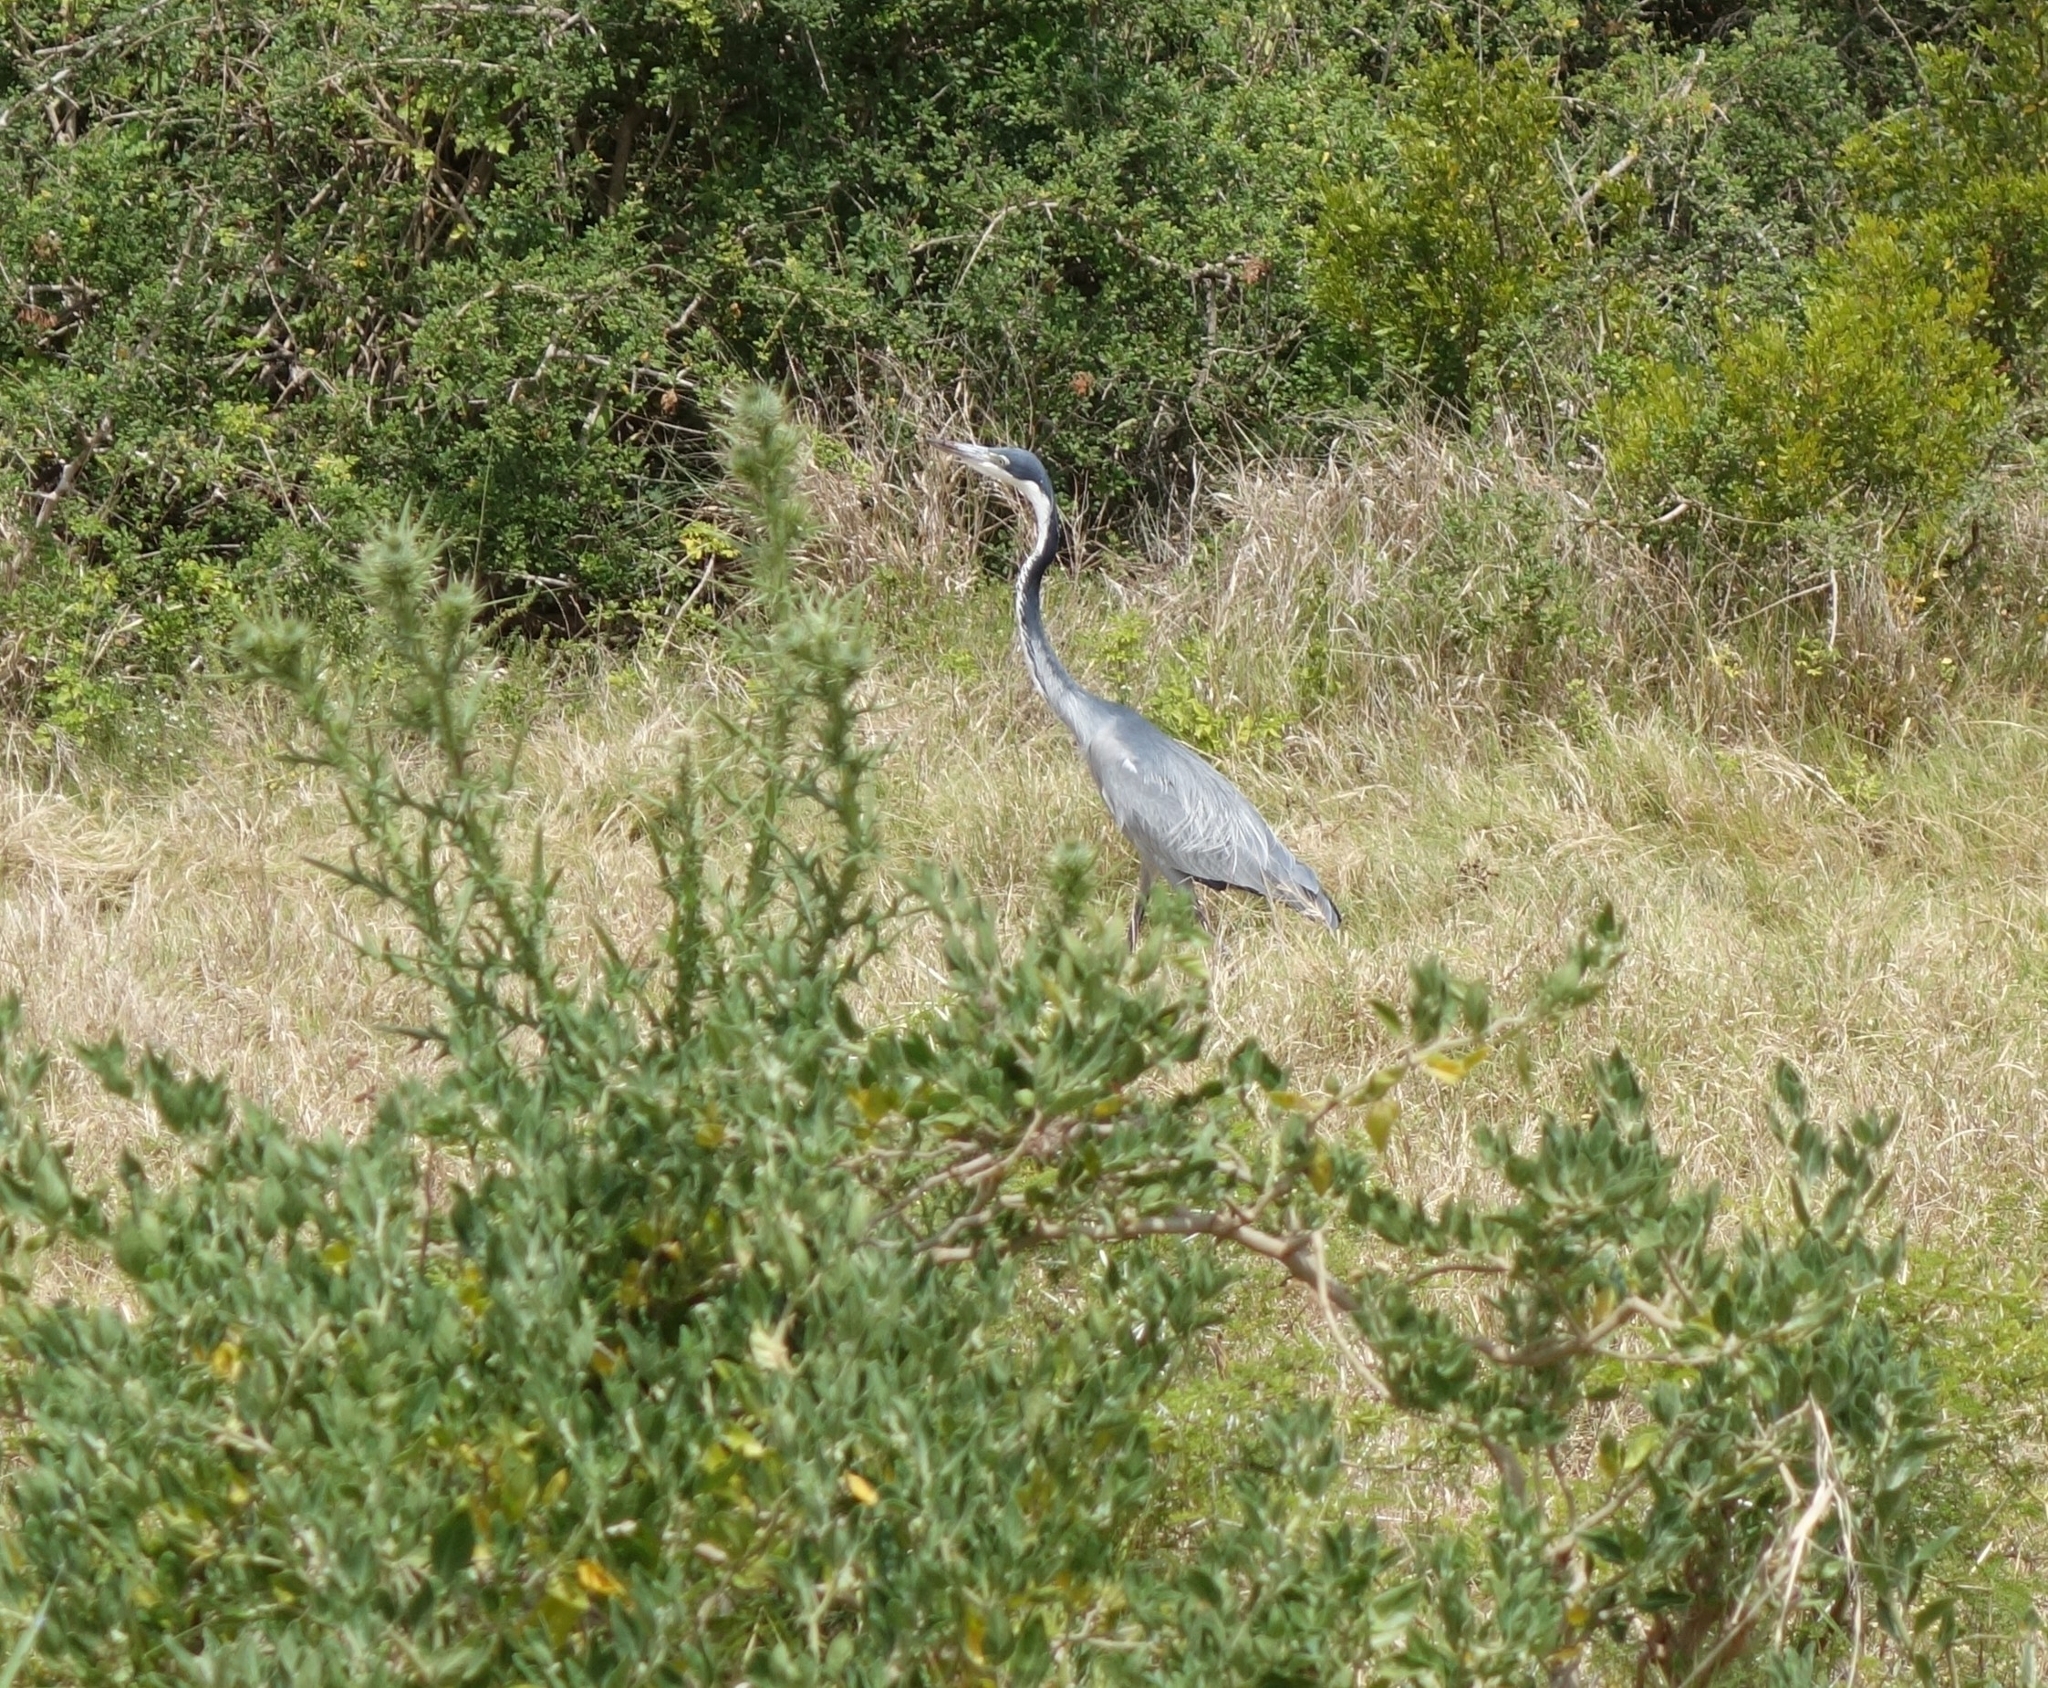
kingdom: Animalia
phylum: Chordata
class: Aves
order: Pelecaniformes
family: Ardeidae
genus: Ardea
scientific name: Ardea melanocephala
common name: Black-headed heron
